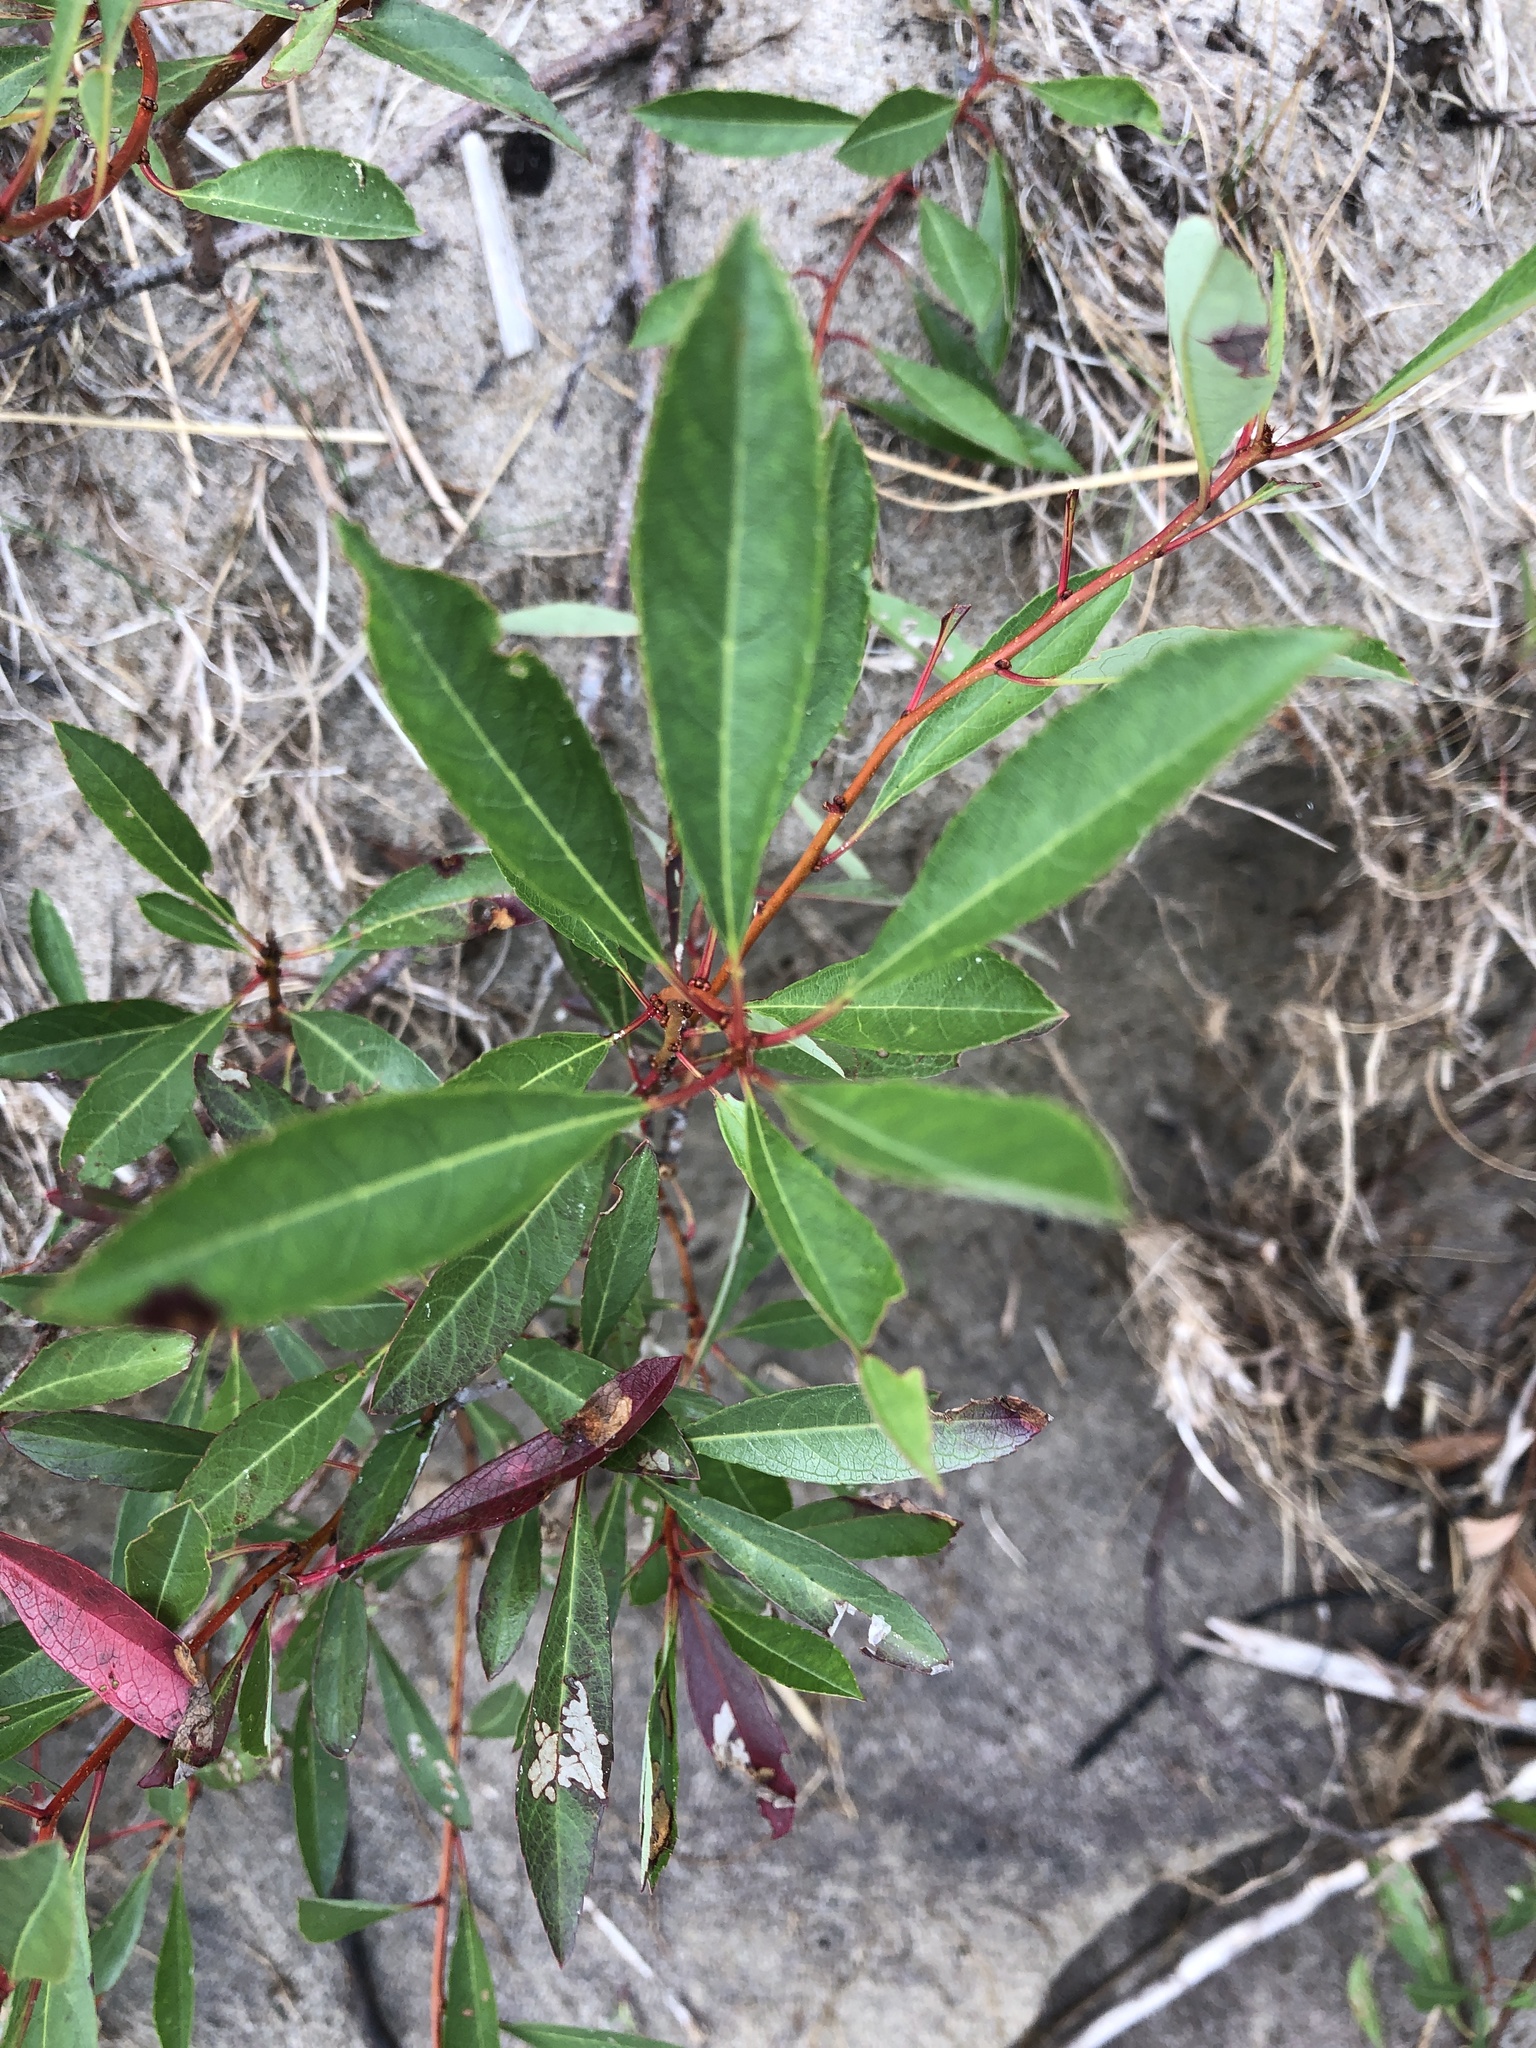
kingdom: Plantae
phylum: Tracheophyta
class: Magnoliopsida
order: Rosales
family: Rosaceae
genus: Prunus
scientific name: Prunus pumila
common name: Dwarf cherry
